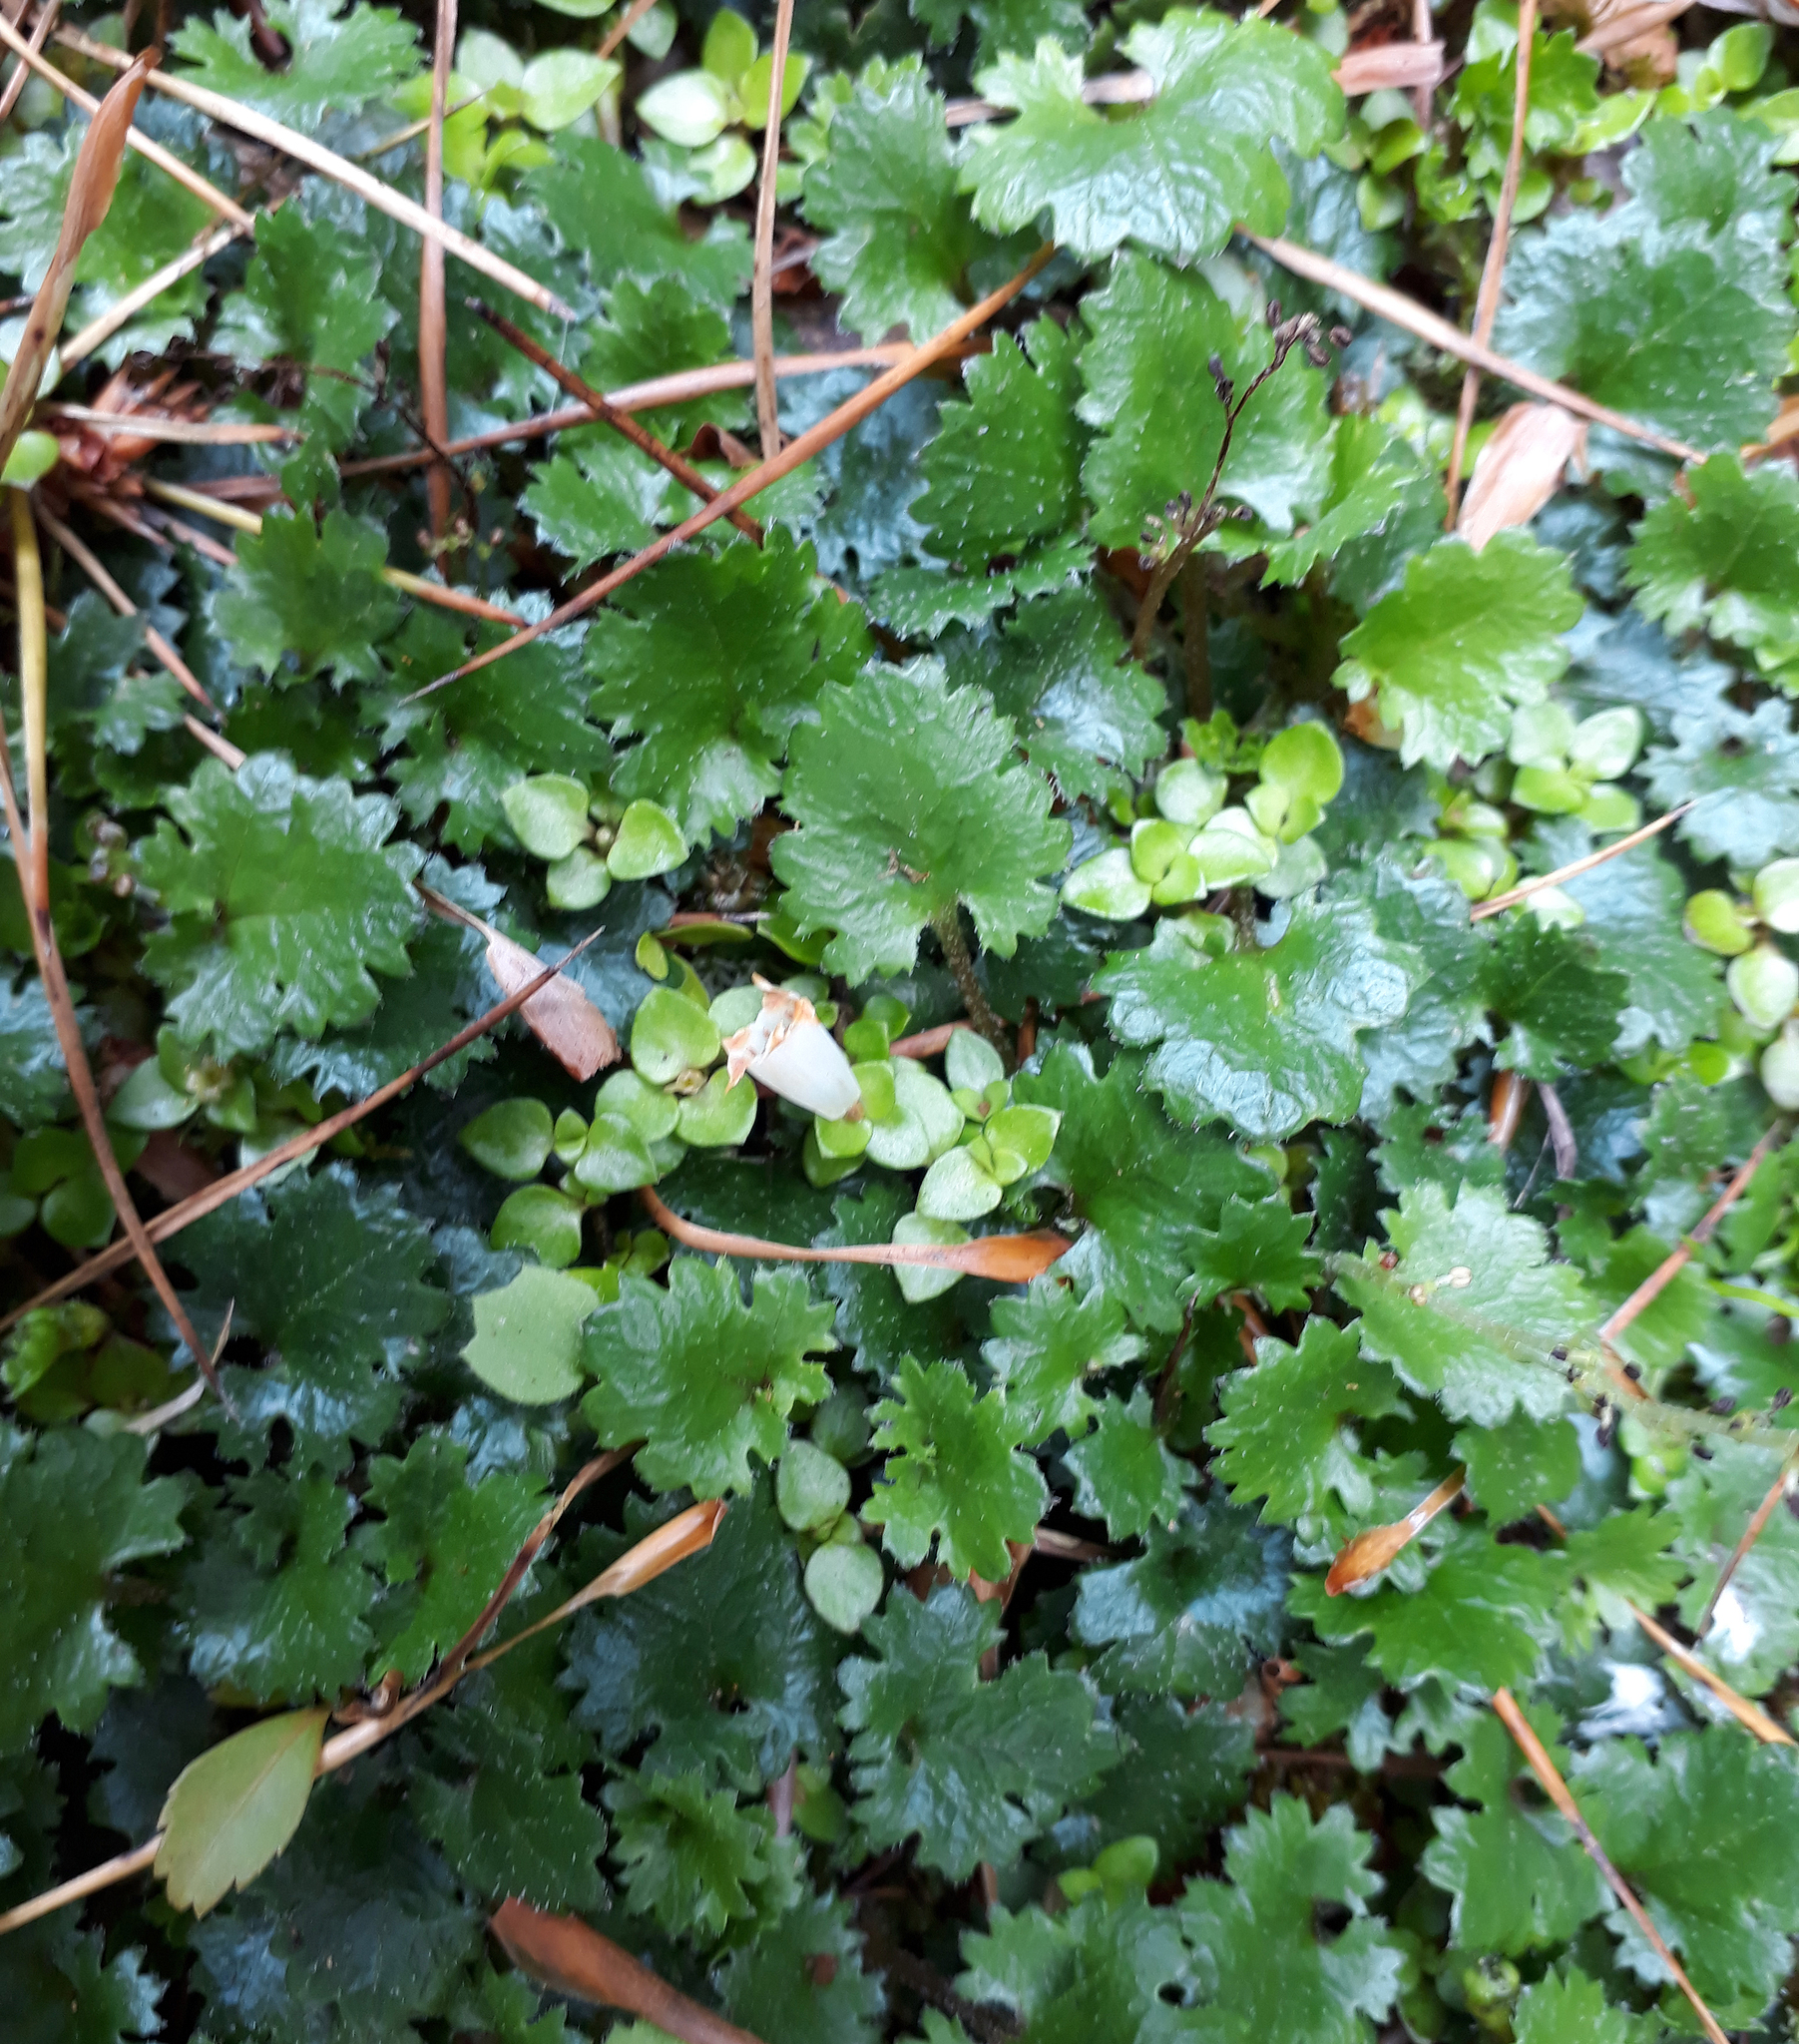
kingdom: Plantae
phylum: Tracheophyta
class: Magnoliopsida
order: Gunnerales
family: Gunneraceae
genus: Gunnera
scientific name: Gunnera monoica
